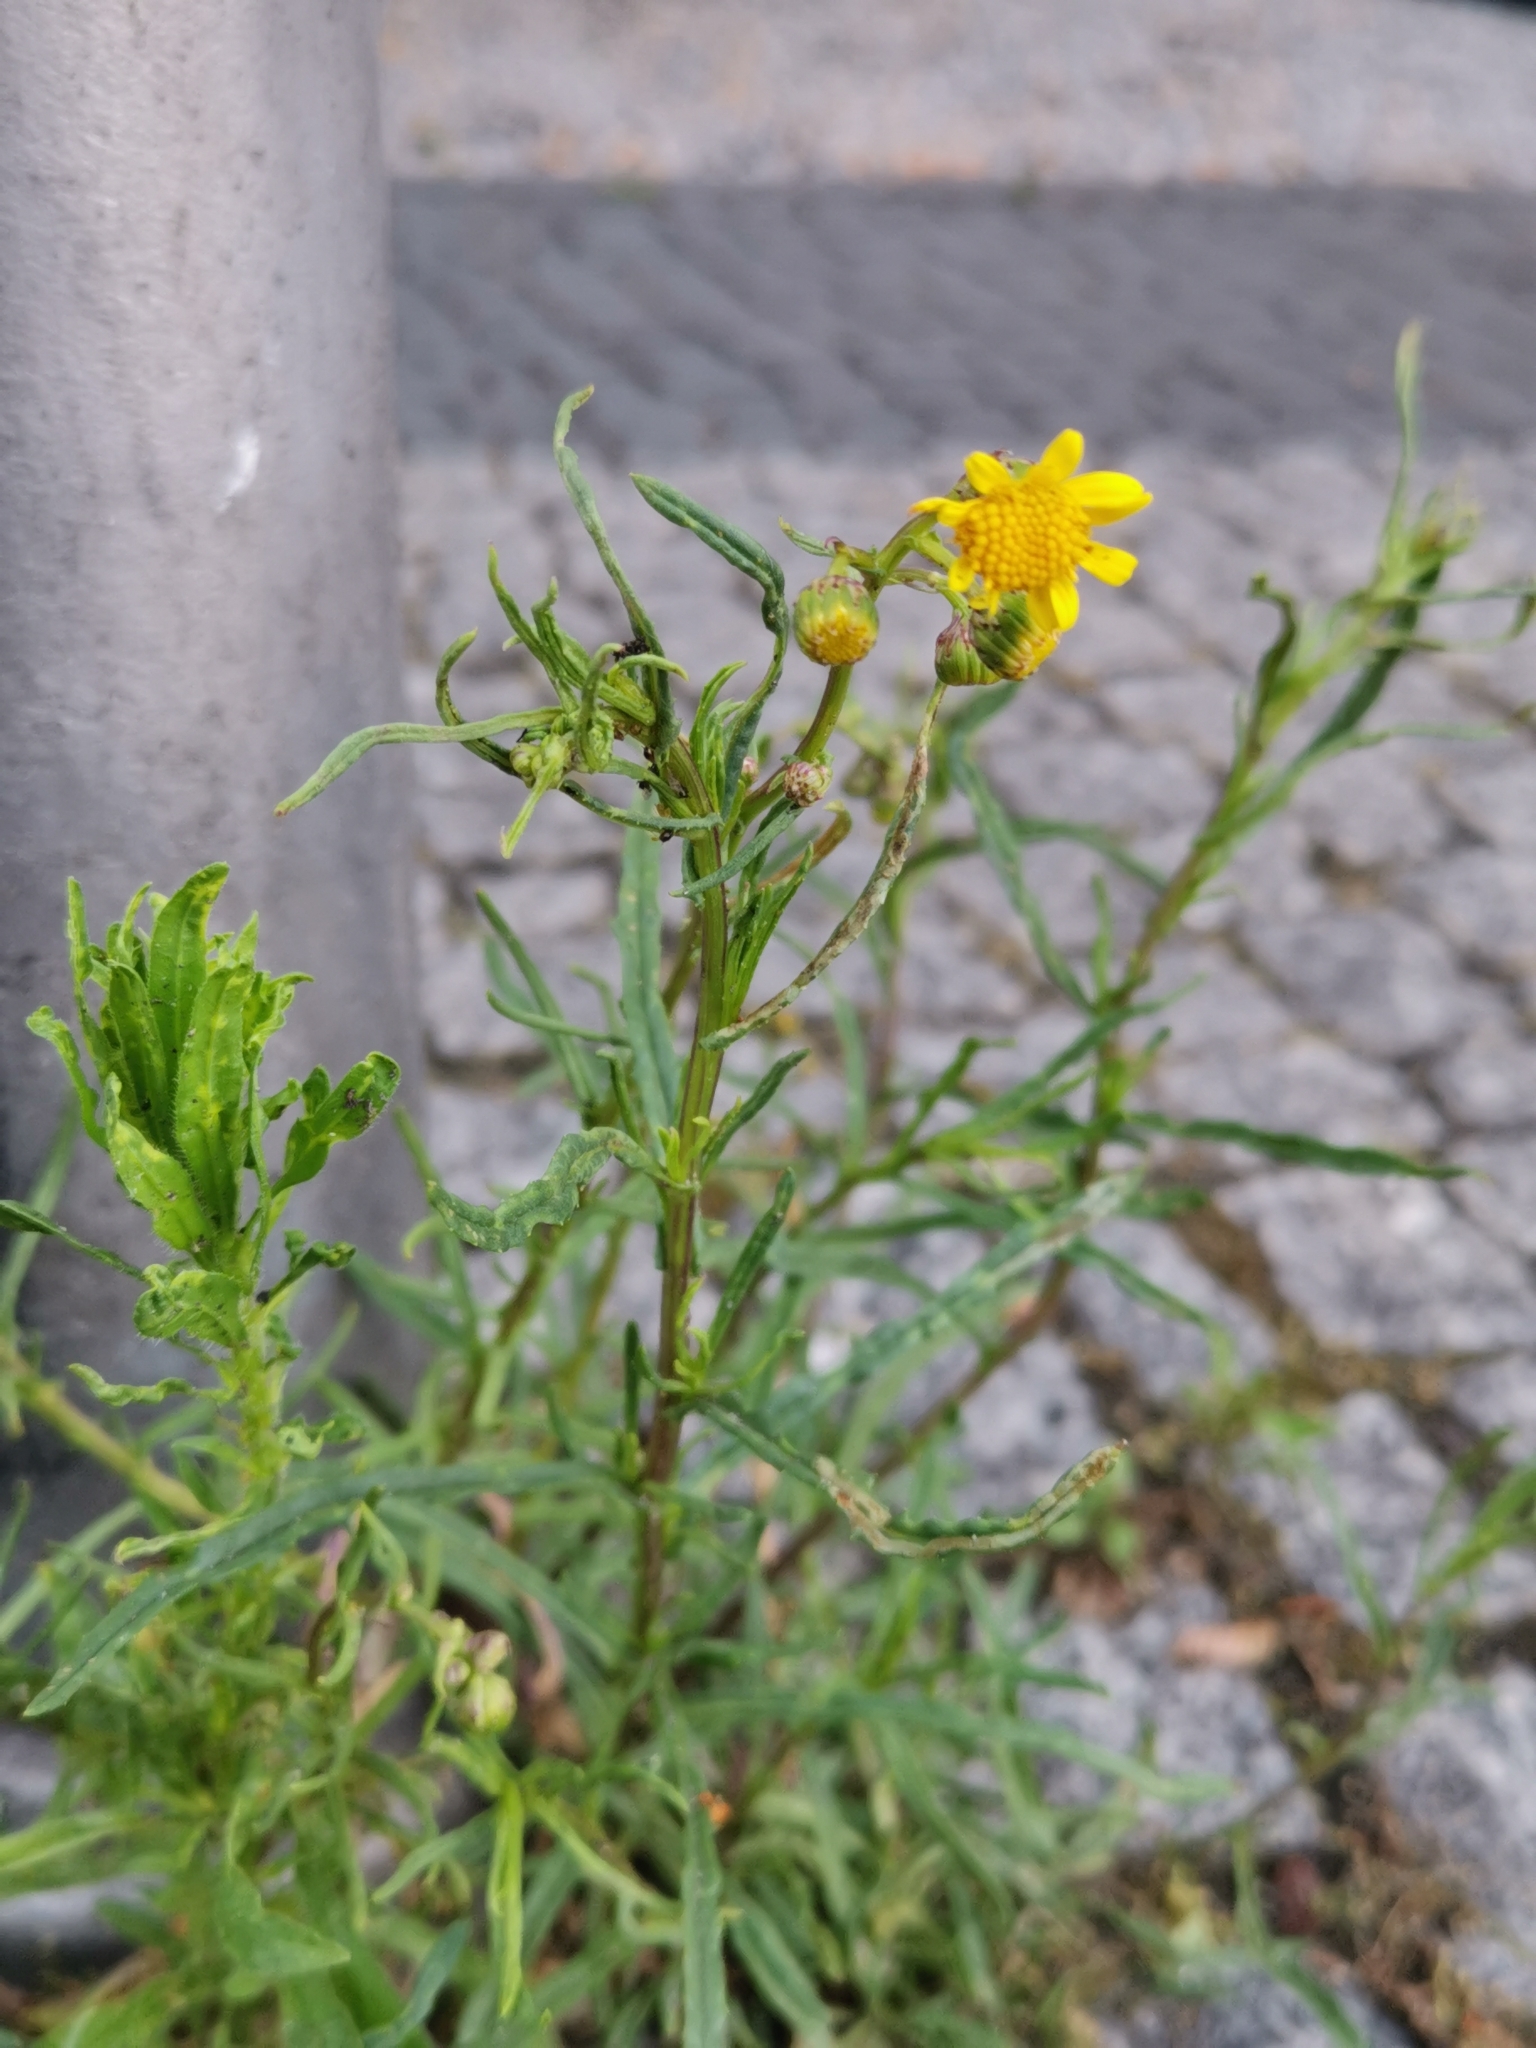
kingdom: Plantae
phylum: Tracheophyta
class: Magnoliopsida
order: Asterales
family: Asteraceae
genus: Senecio
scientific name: Senecio inaequidens
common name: Narrow-leaved ragwort
